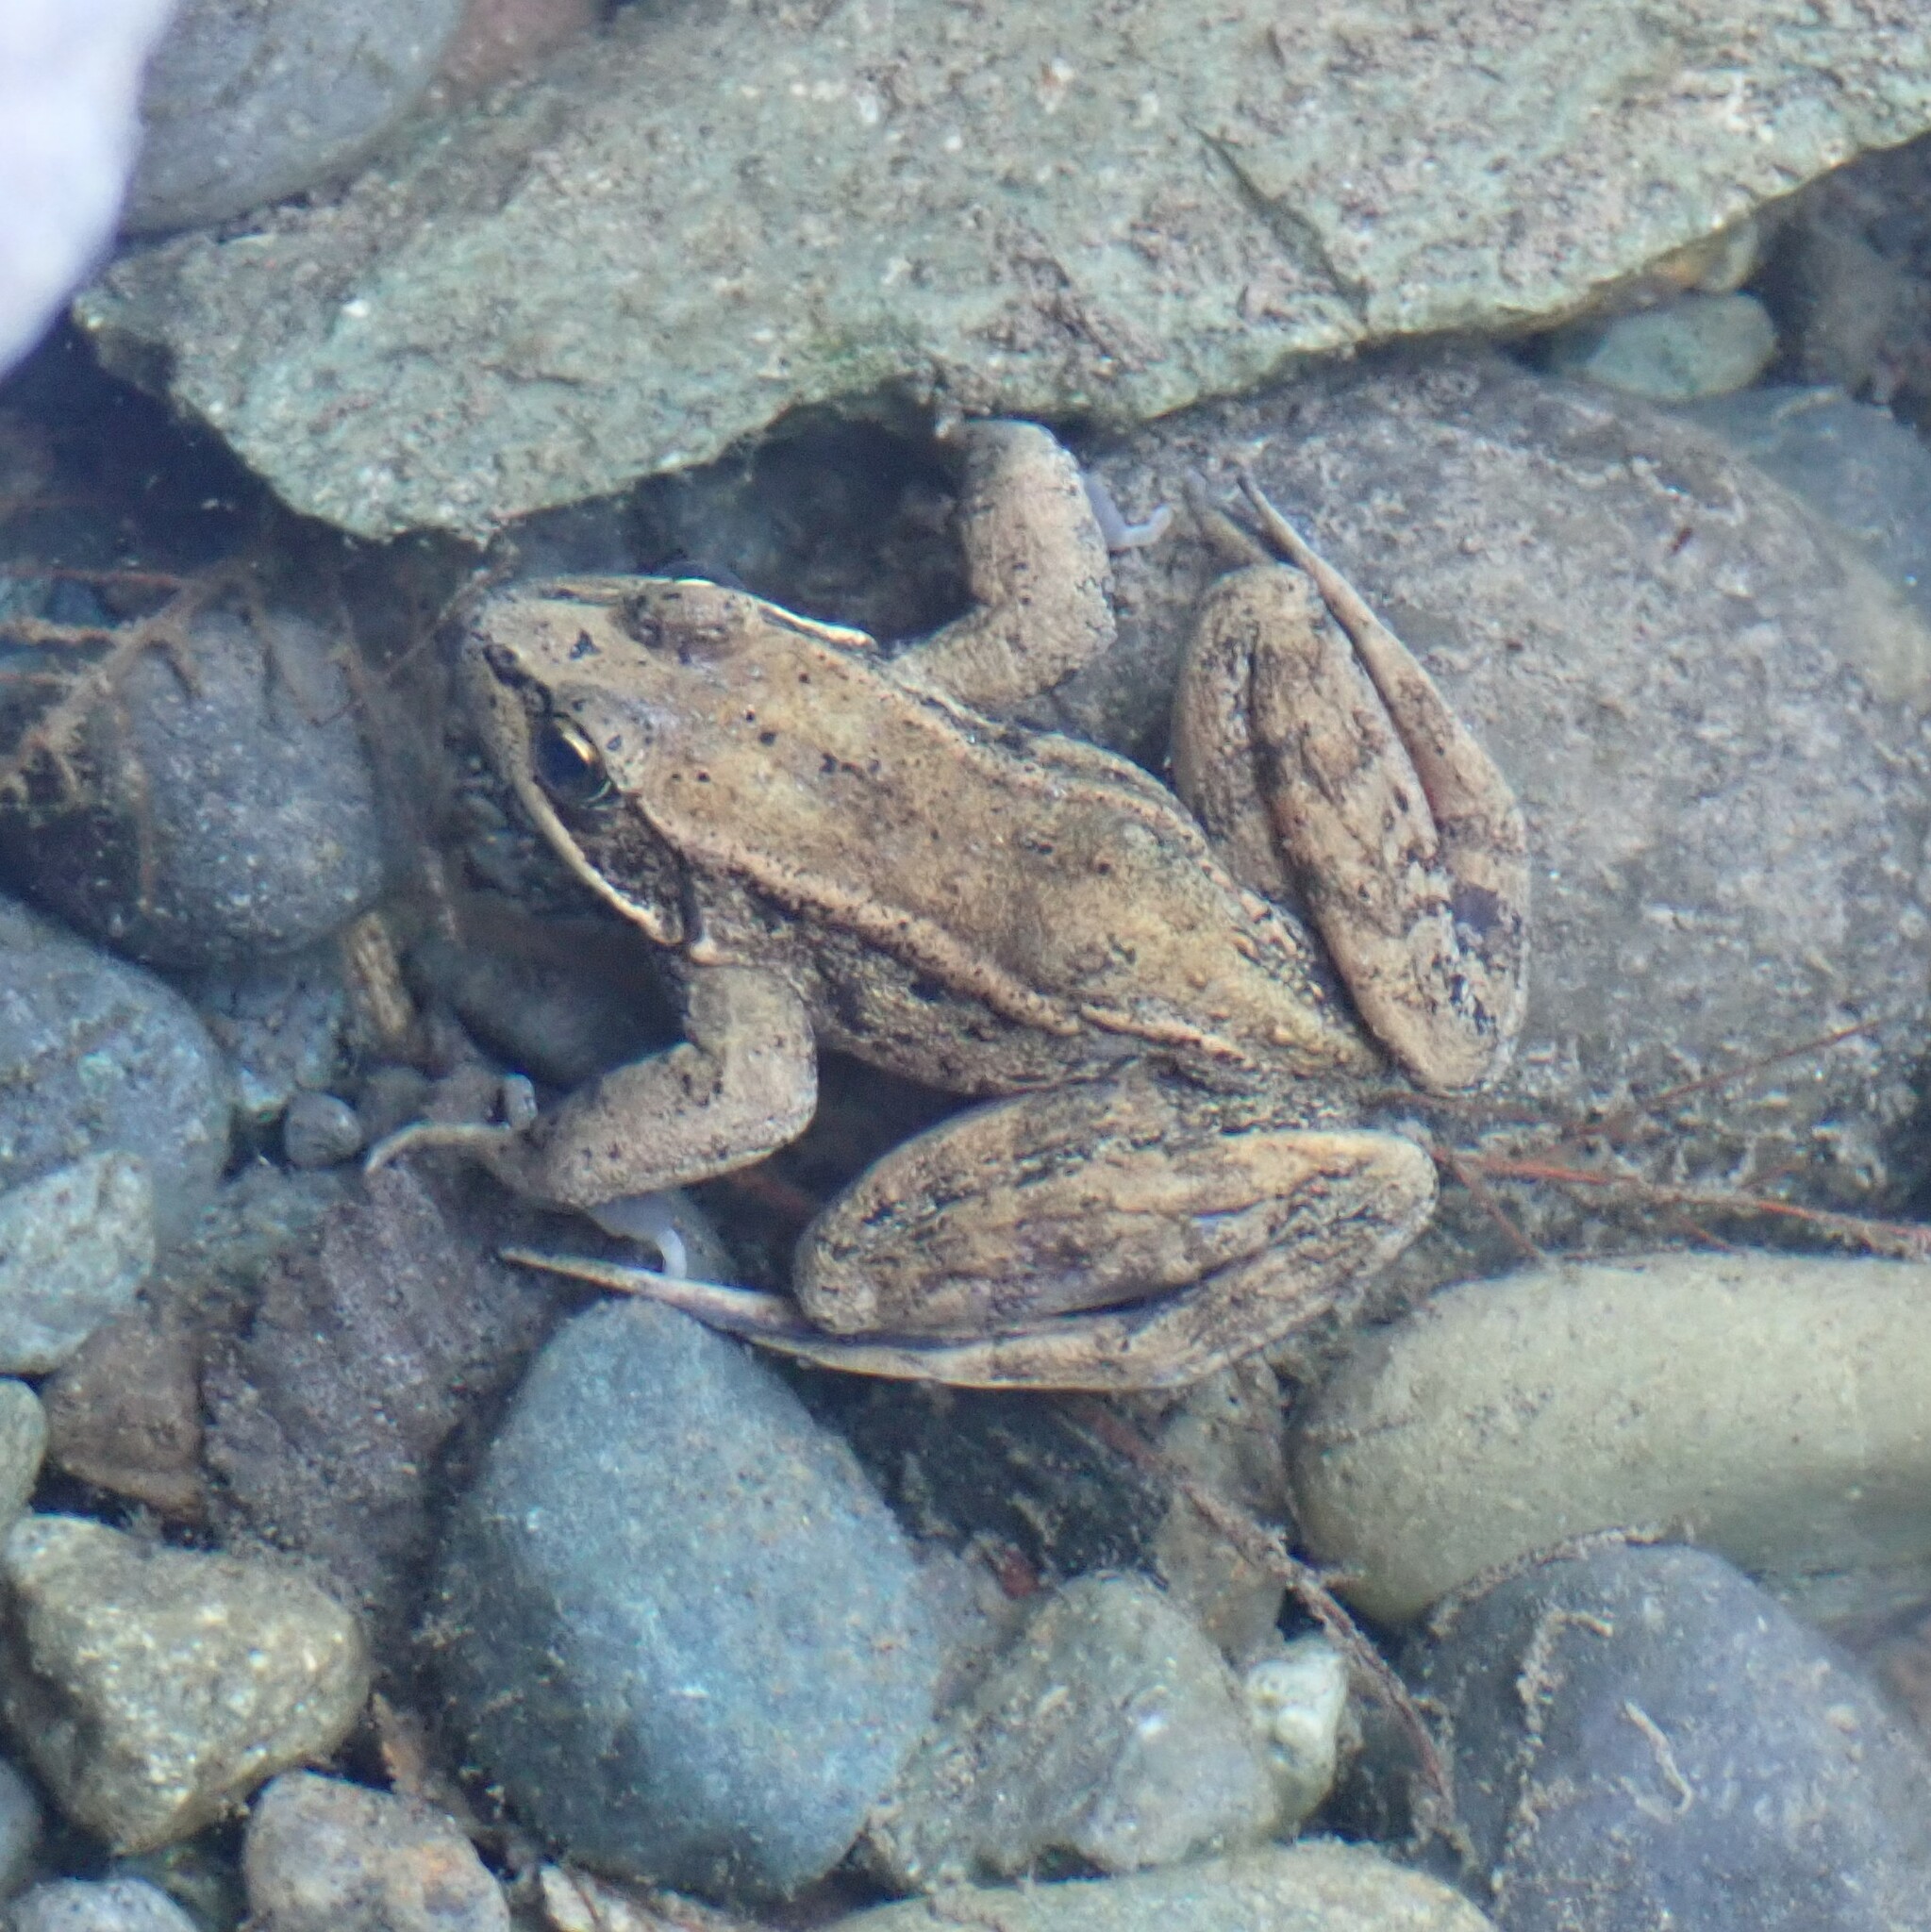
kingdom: Animalia
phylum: Chordata
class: Amphibia
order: Anura
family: Ranidae
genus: Rana
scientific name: Rana aurora
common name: Red-legged frog
